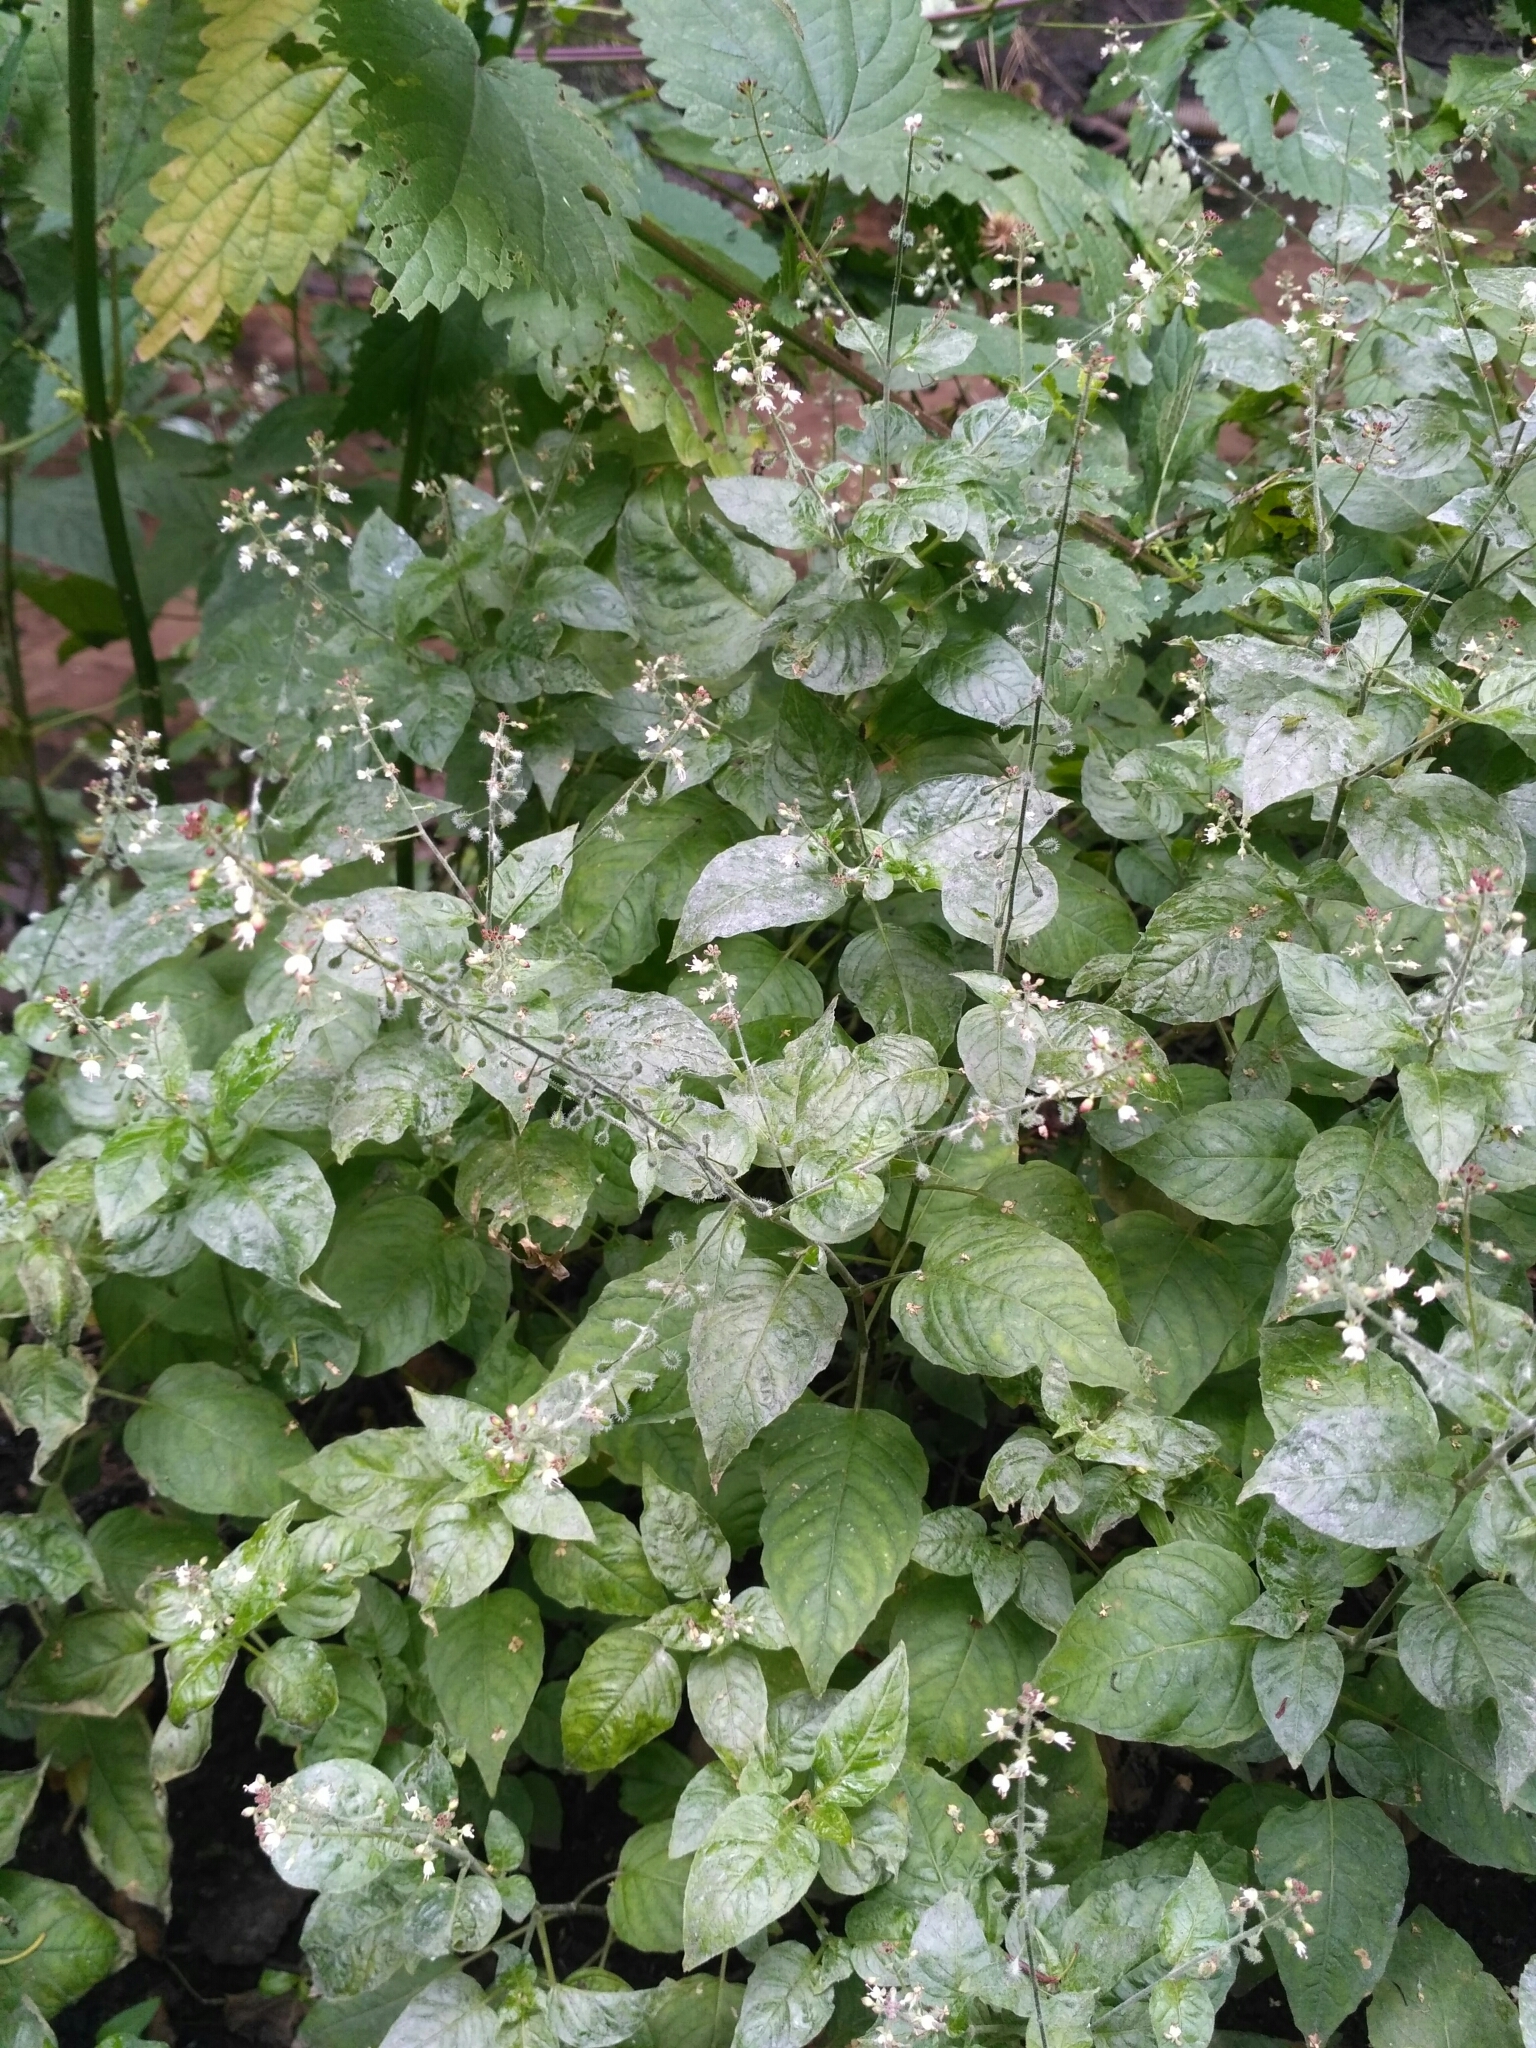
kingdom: Plantae
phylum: Tracheophyta
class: Magnoliopsida
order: Myrtales
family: Onagraceae
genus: Circaea
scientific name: Circaea lutetiana
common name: Enchanter's-nightshade
